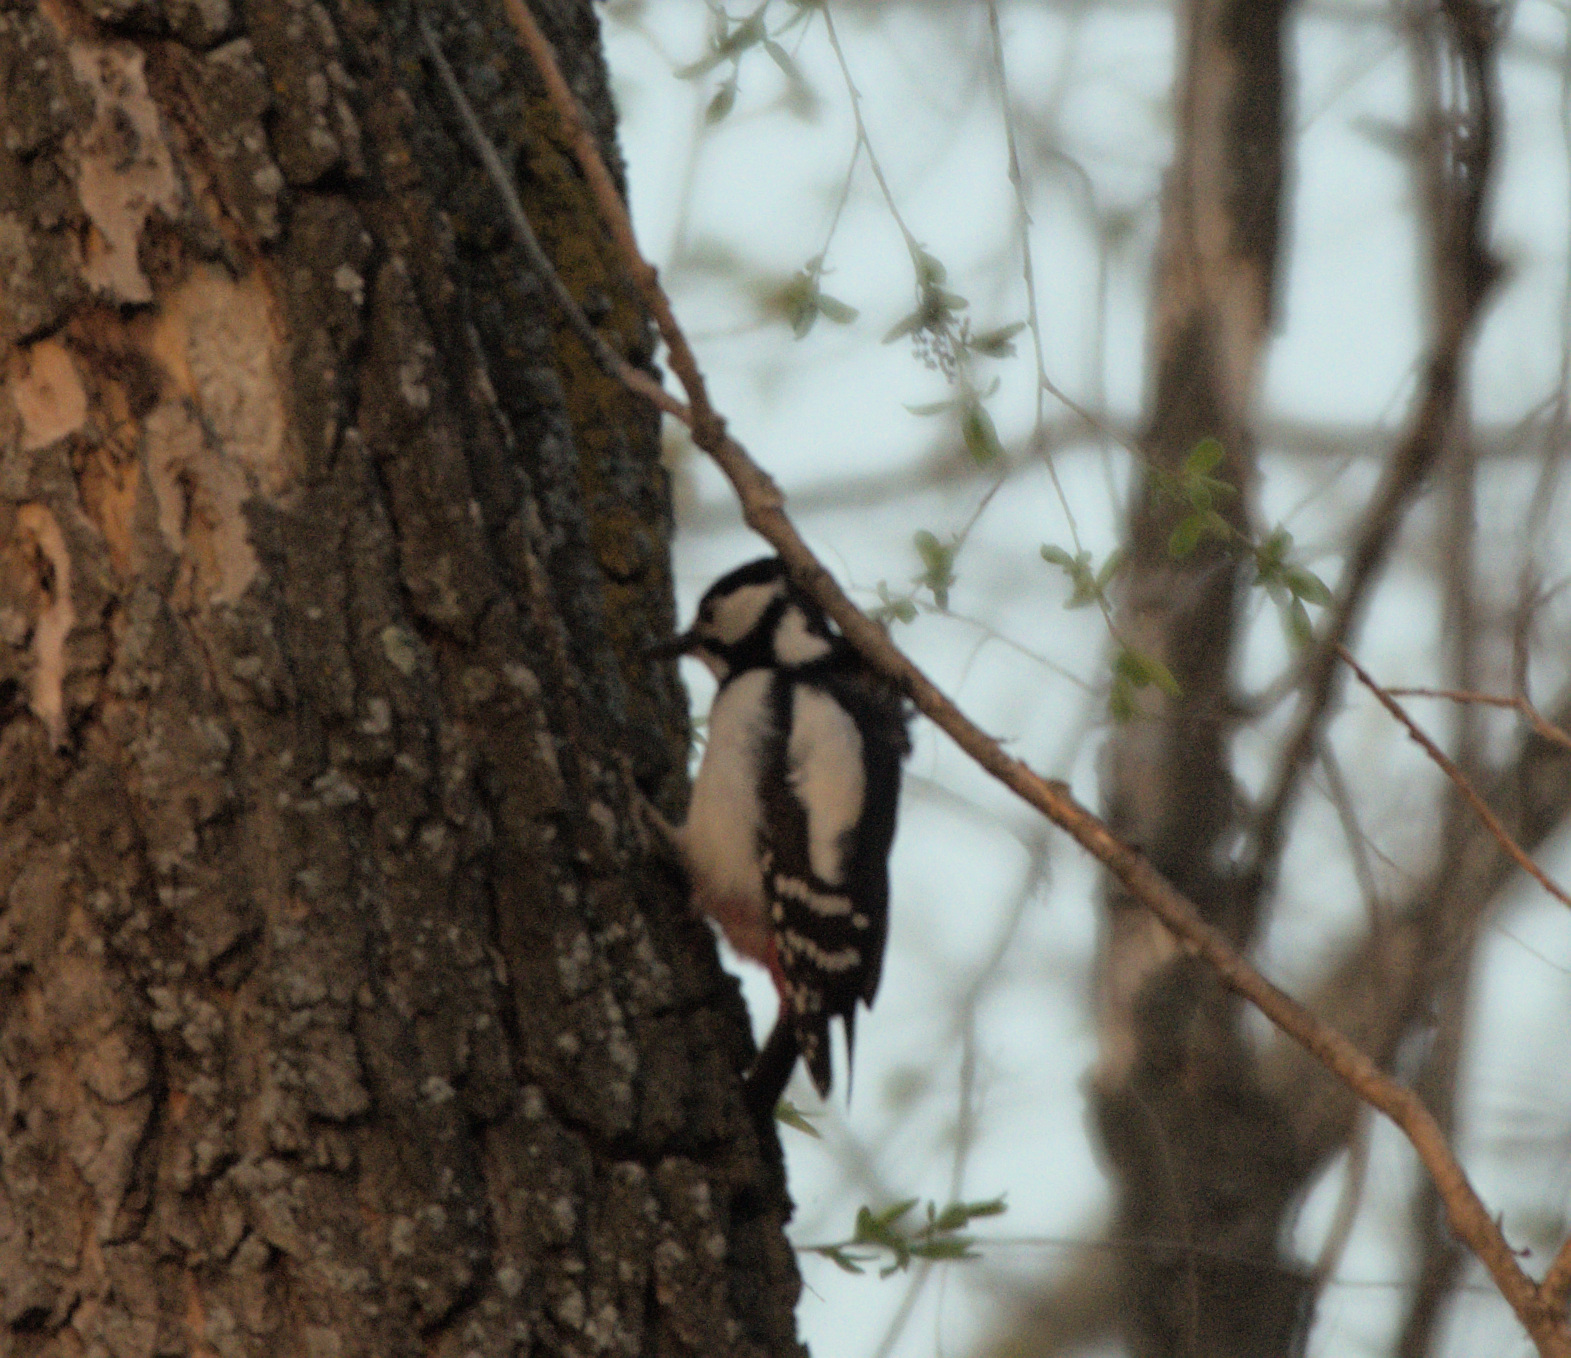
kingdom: Animalia
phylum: Chordata
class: Aves
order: Piciformes
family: Picidae
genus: Dendrocopos
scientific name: Dendrocopos major
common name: Great spotted woodpecker
